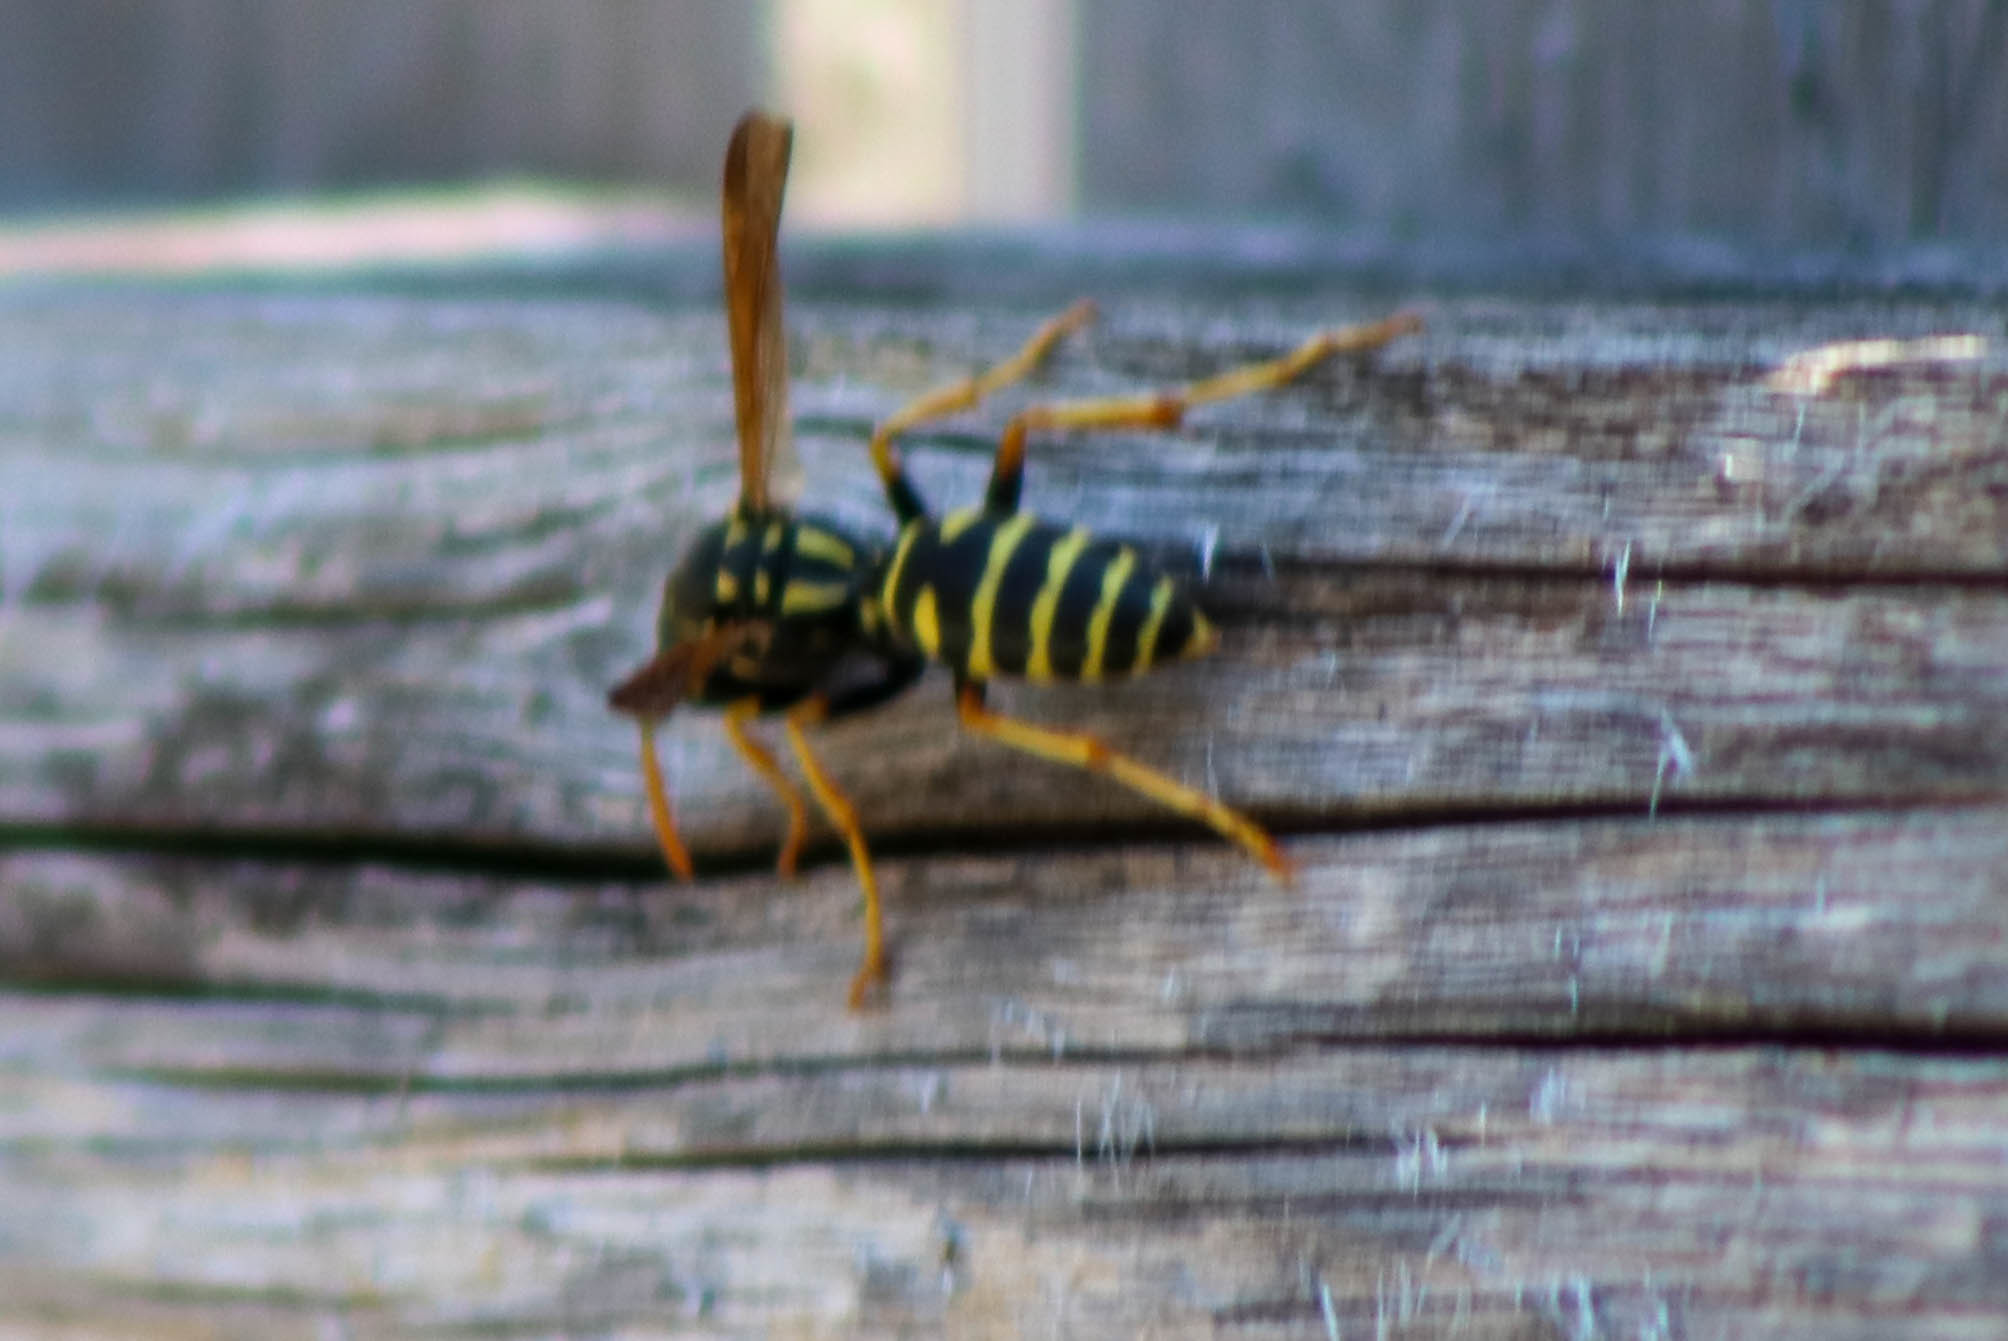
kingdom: Animalia
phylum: Arthropoda
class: Insecta
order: Hymenoptera
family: Eumenidae
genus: Polistes
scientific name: Polistes dominula
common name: Paper wasp
